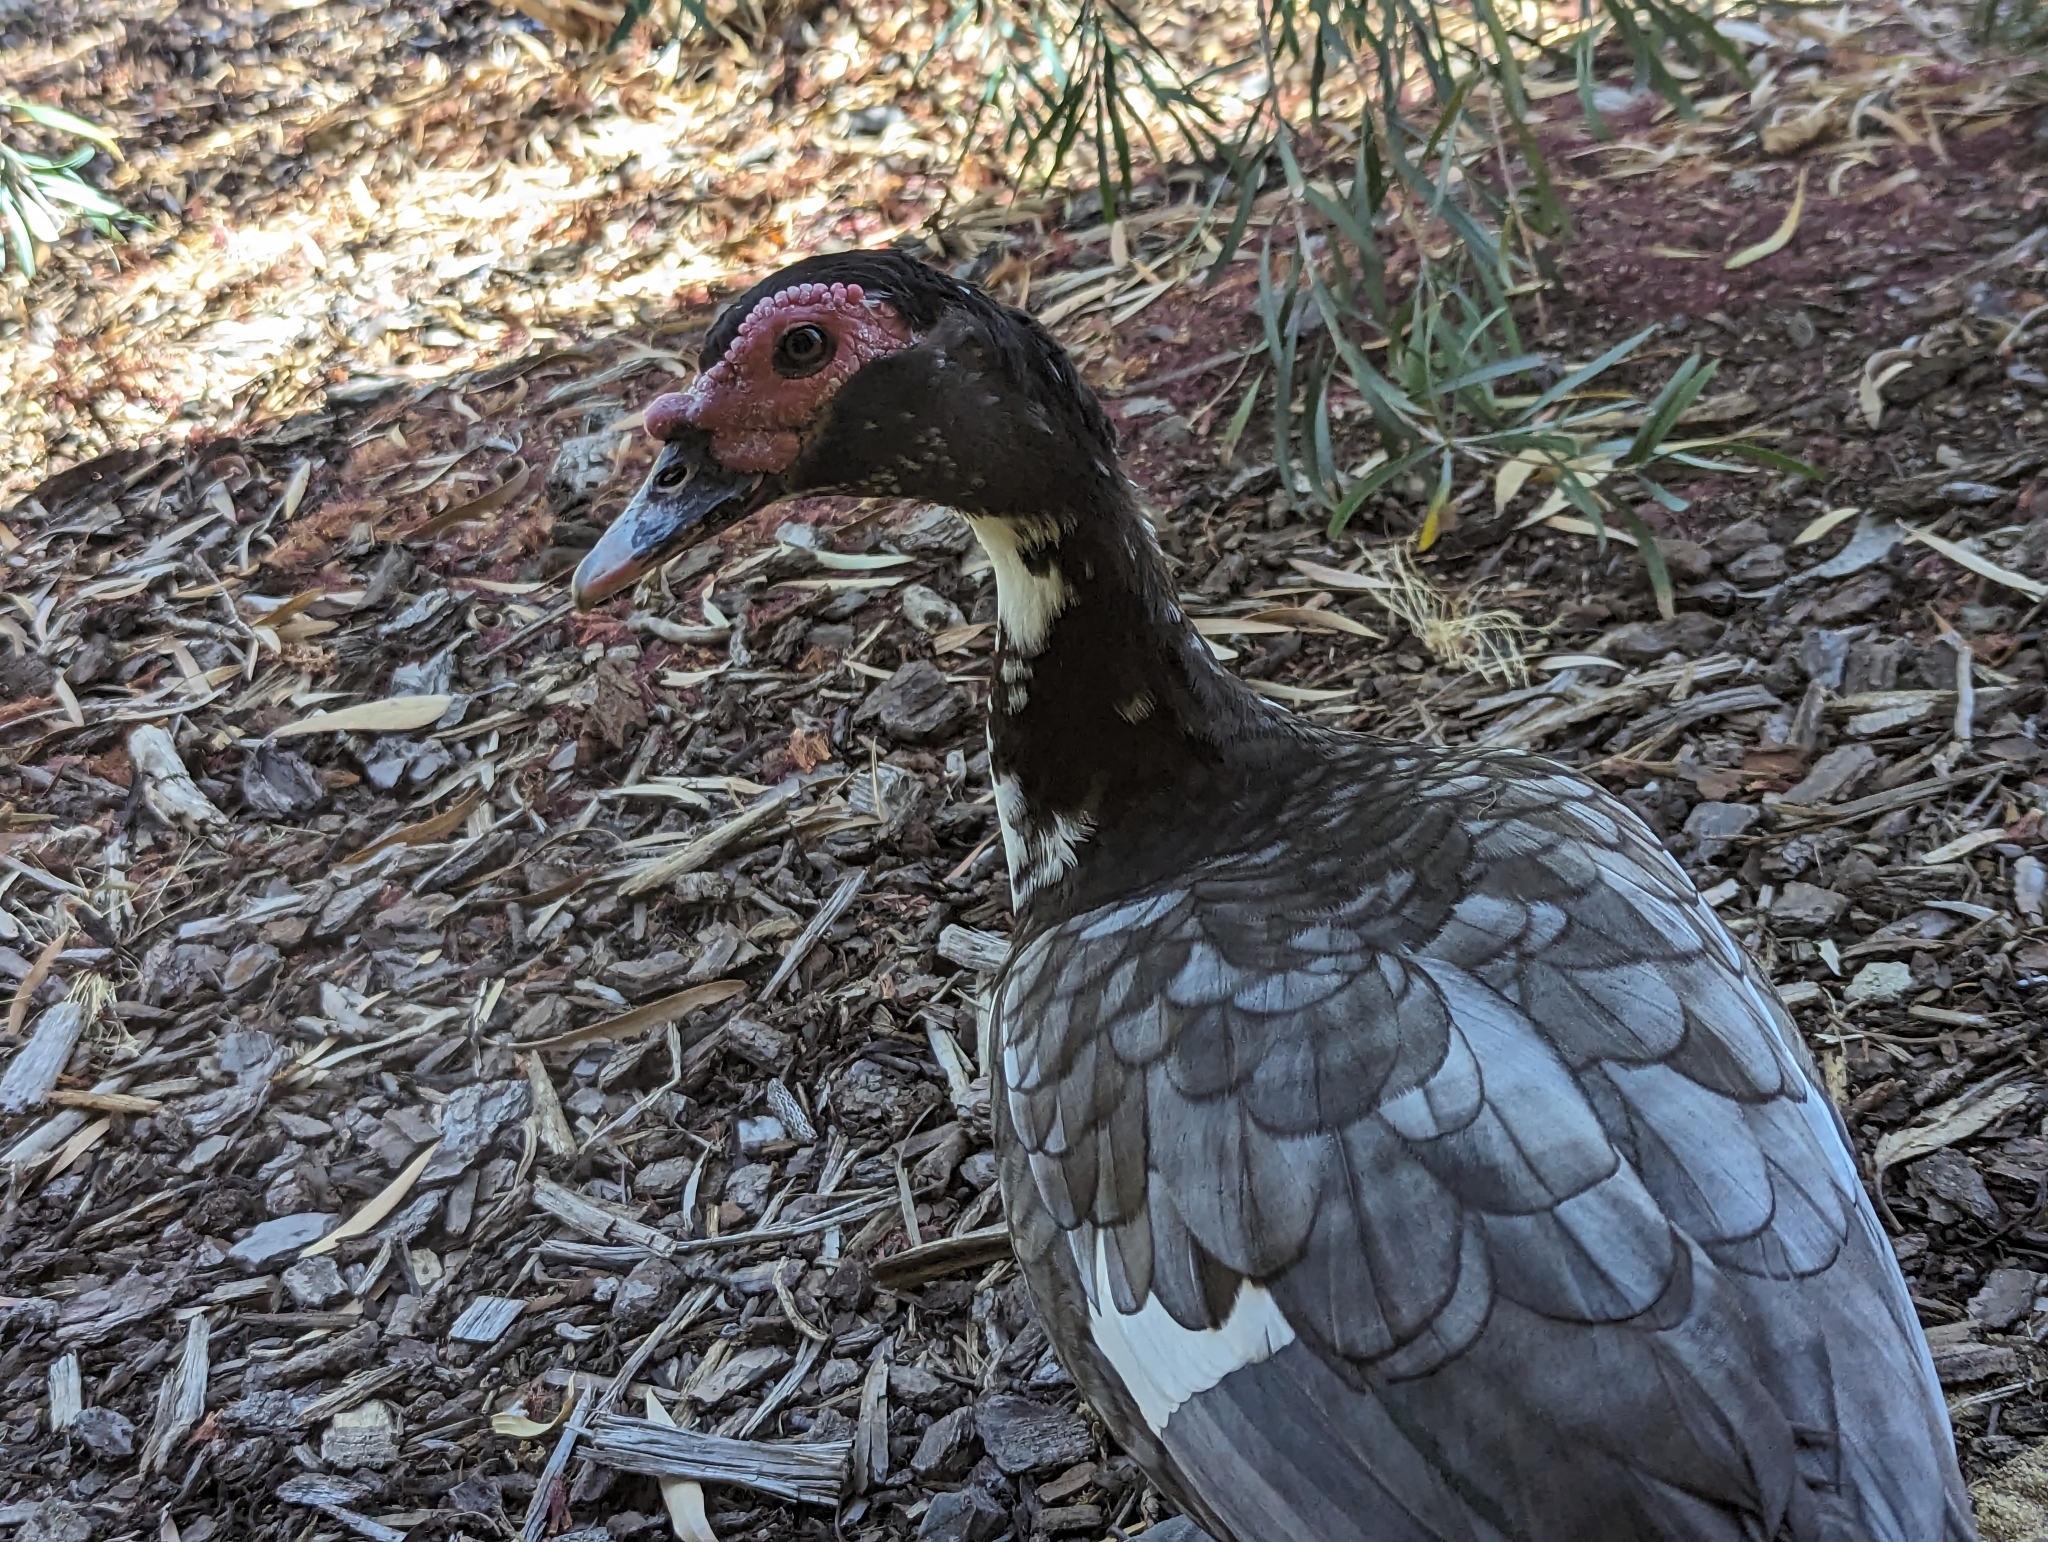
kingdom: Animalia
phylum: Chordata
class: Aves
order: Anseriformes
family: Anatidae
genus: Cairina
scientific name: Cairina moschata
